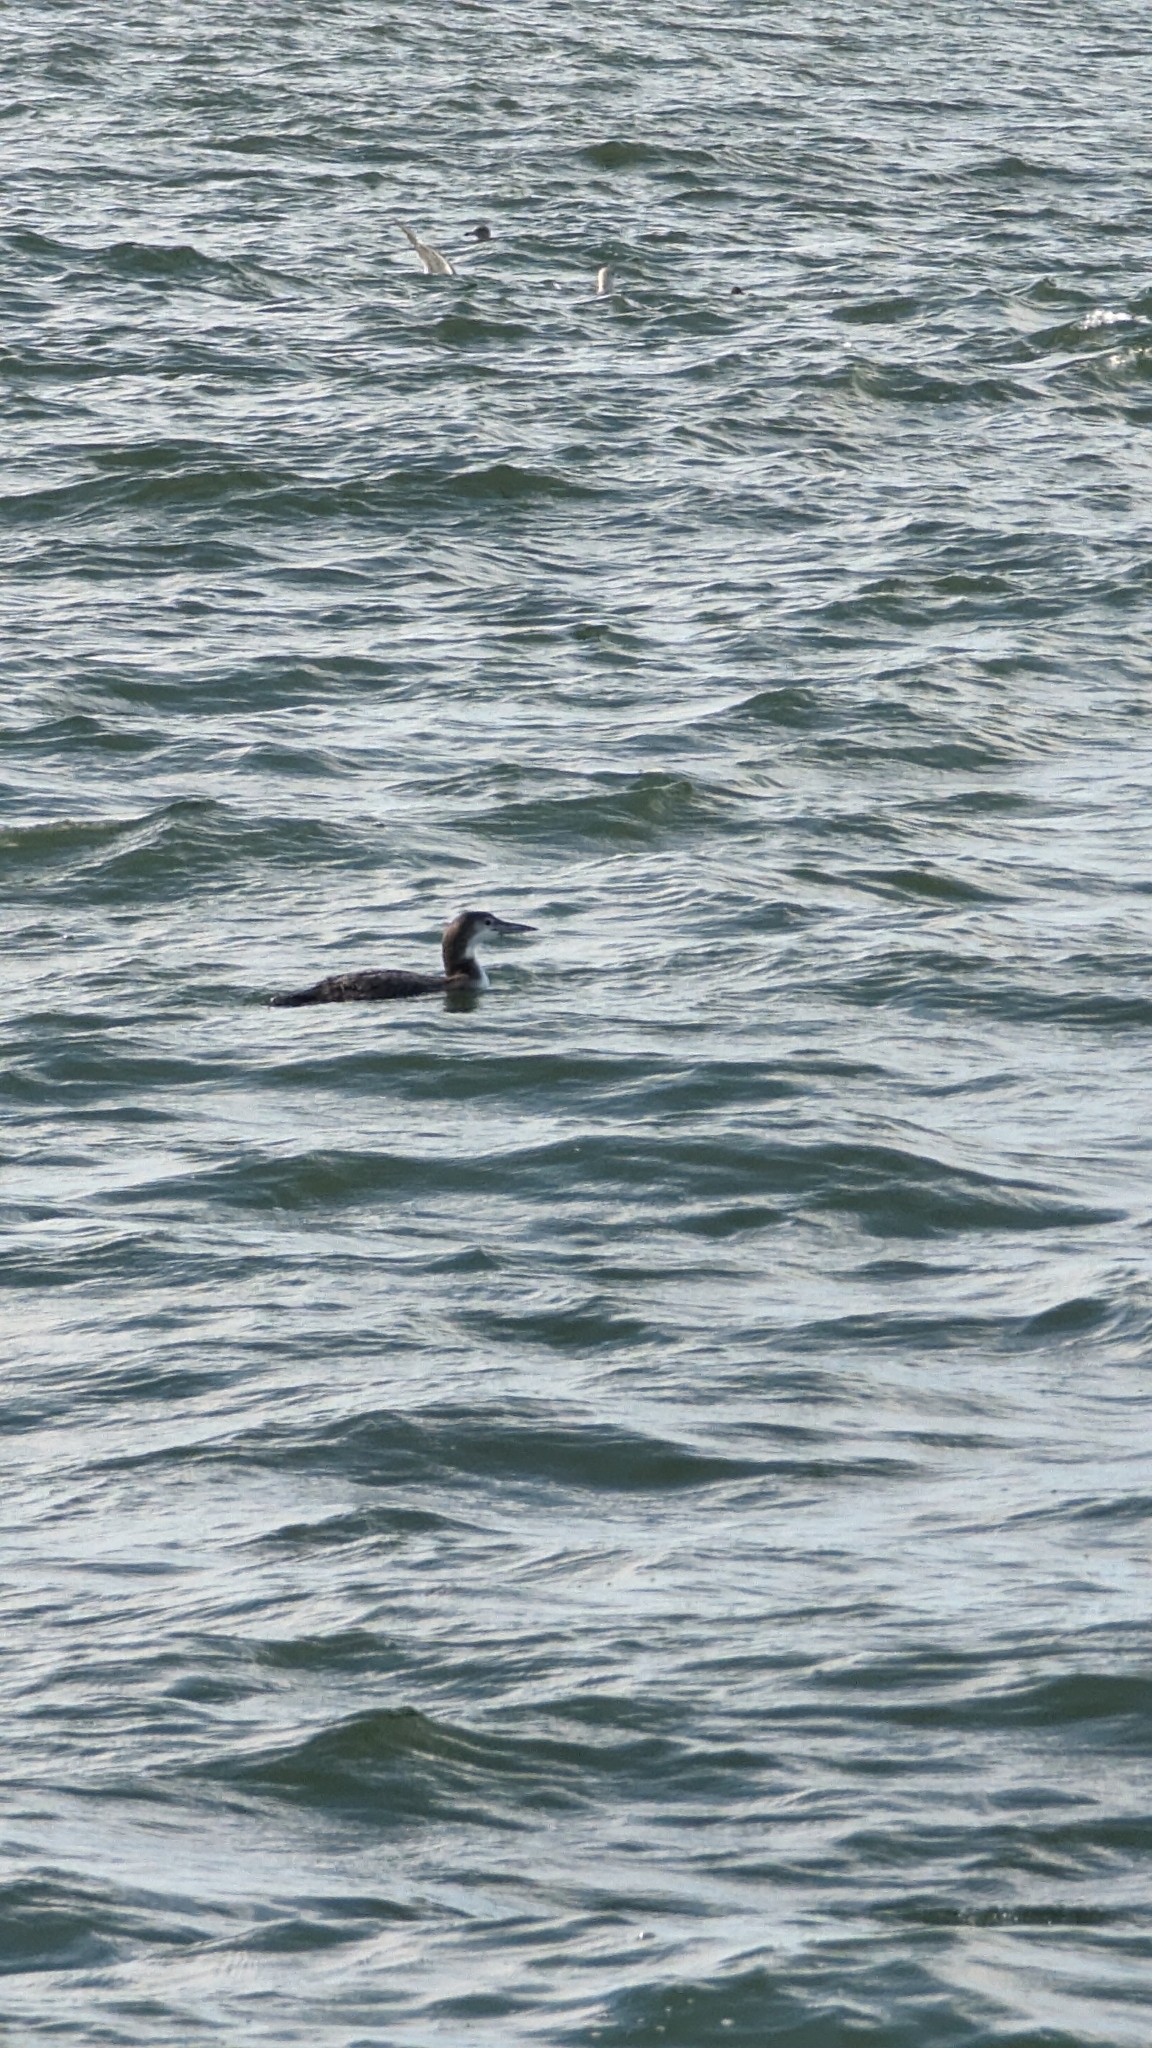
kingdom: Animalia
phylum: Chordata
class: Aves
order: Gaviiformes
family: Gaviidae
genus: Gavia
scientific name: Gavia immer
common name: Common loon
